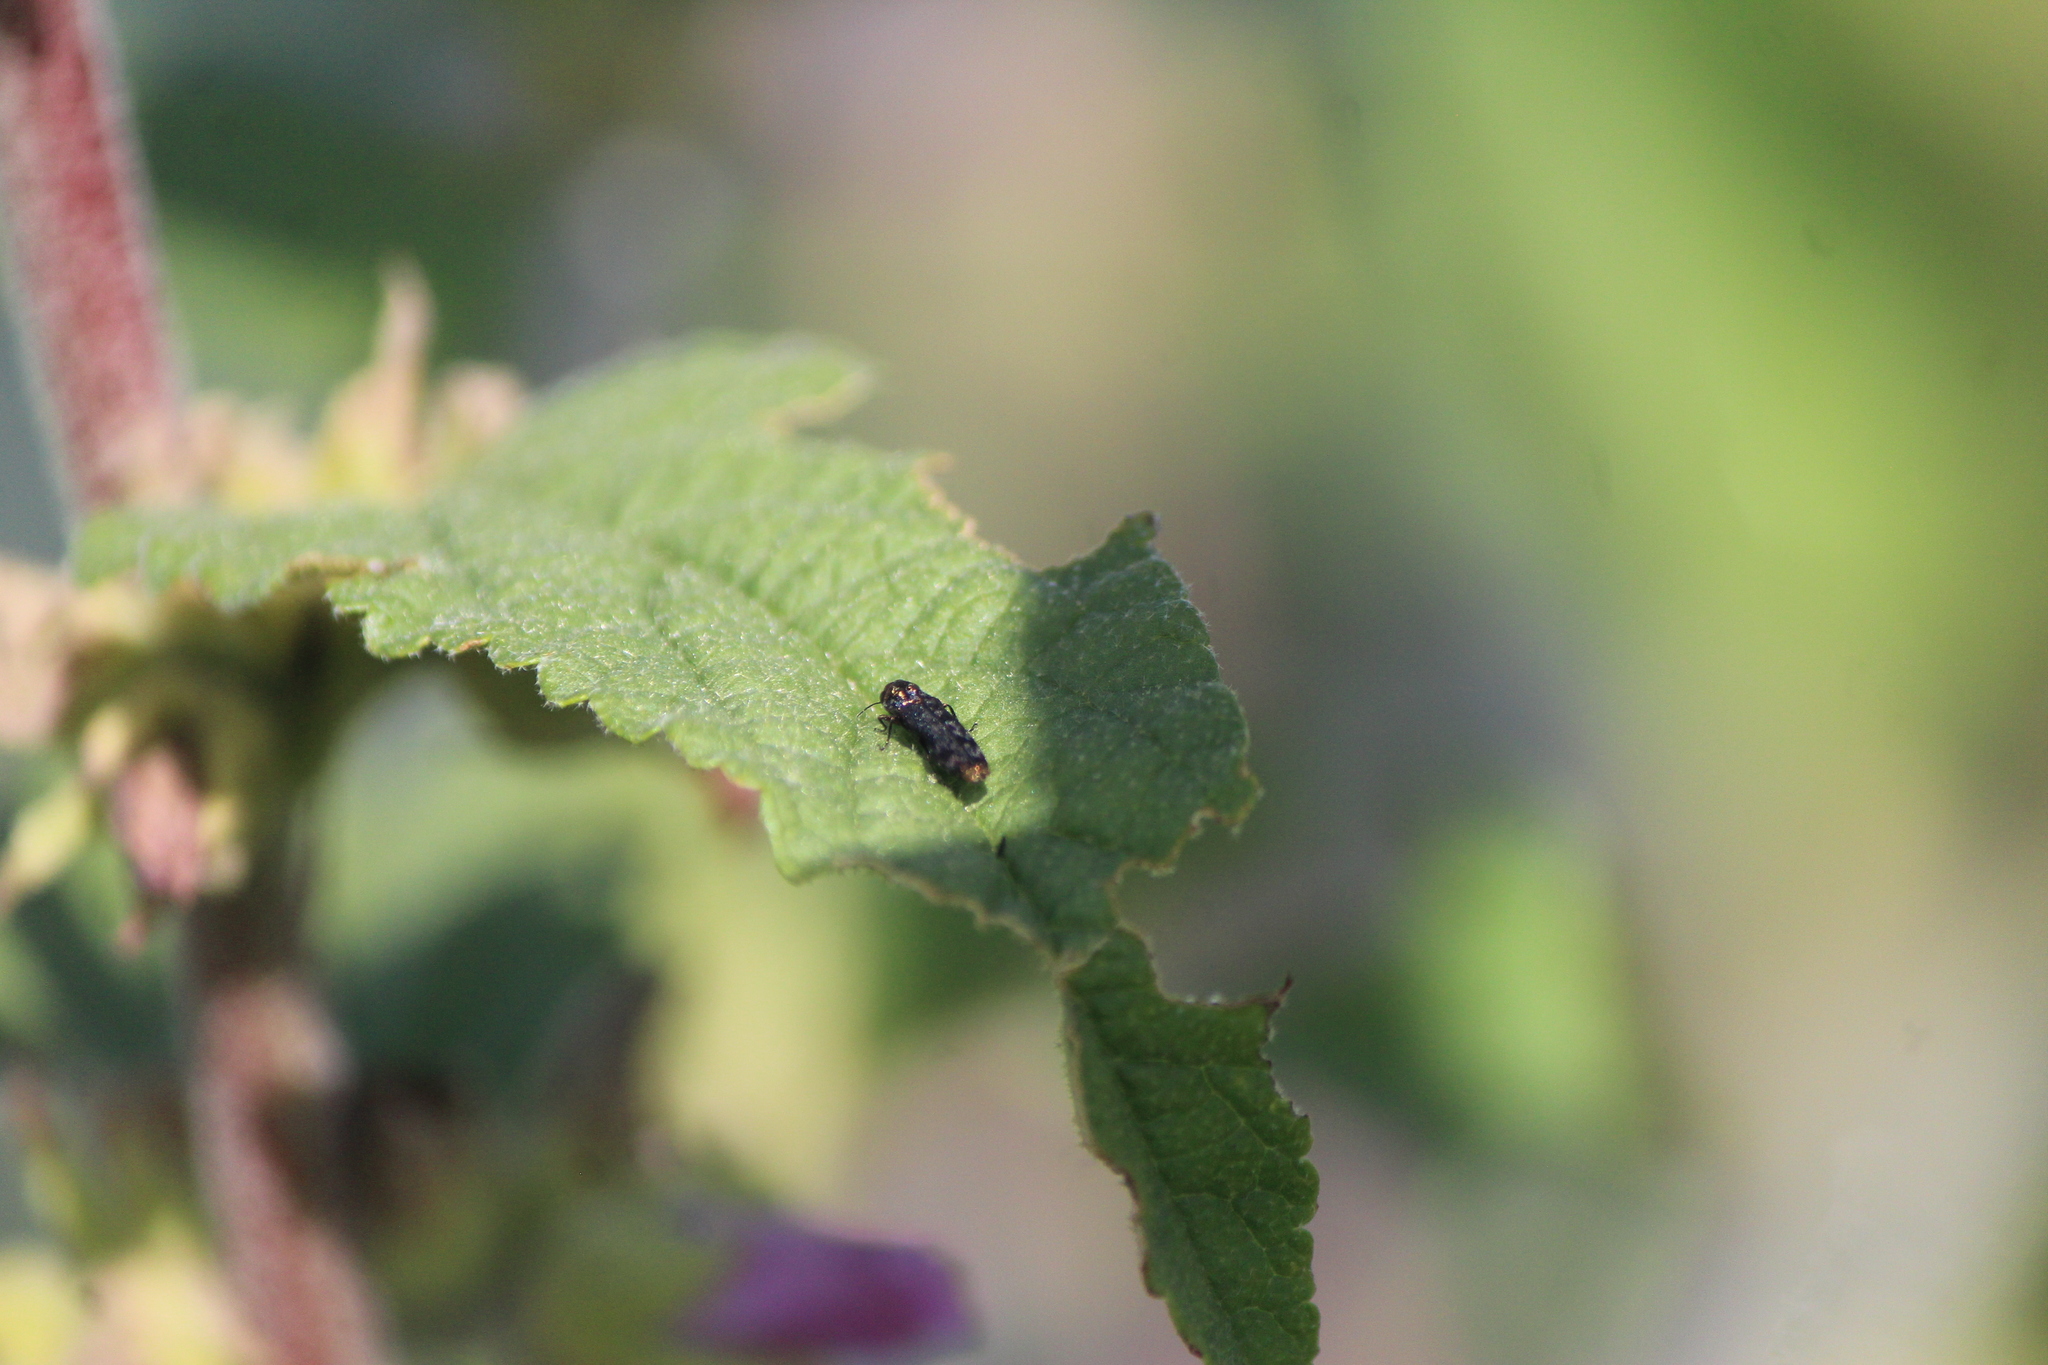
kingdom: Animalia
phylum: Arthropoda
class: Insecta
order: Coleoptera
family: Buprestidae
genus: Agrilus
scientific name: Agrilus sallei
